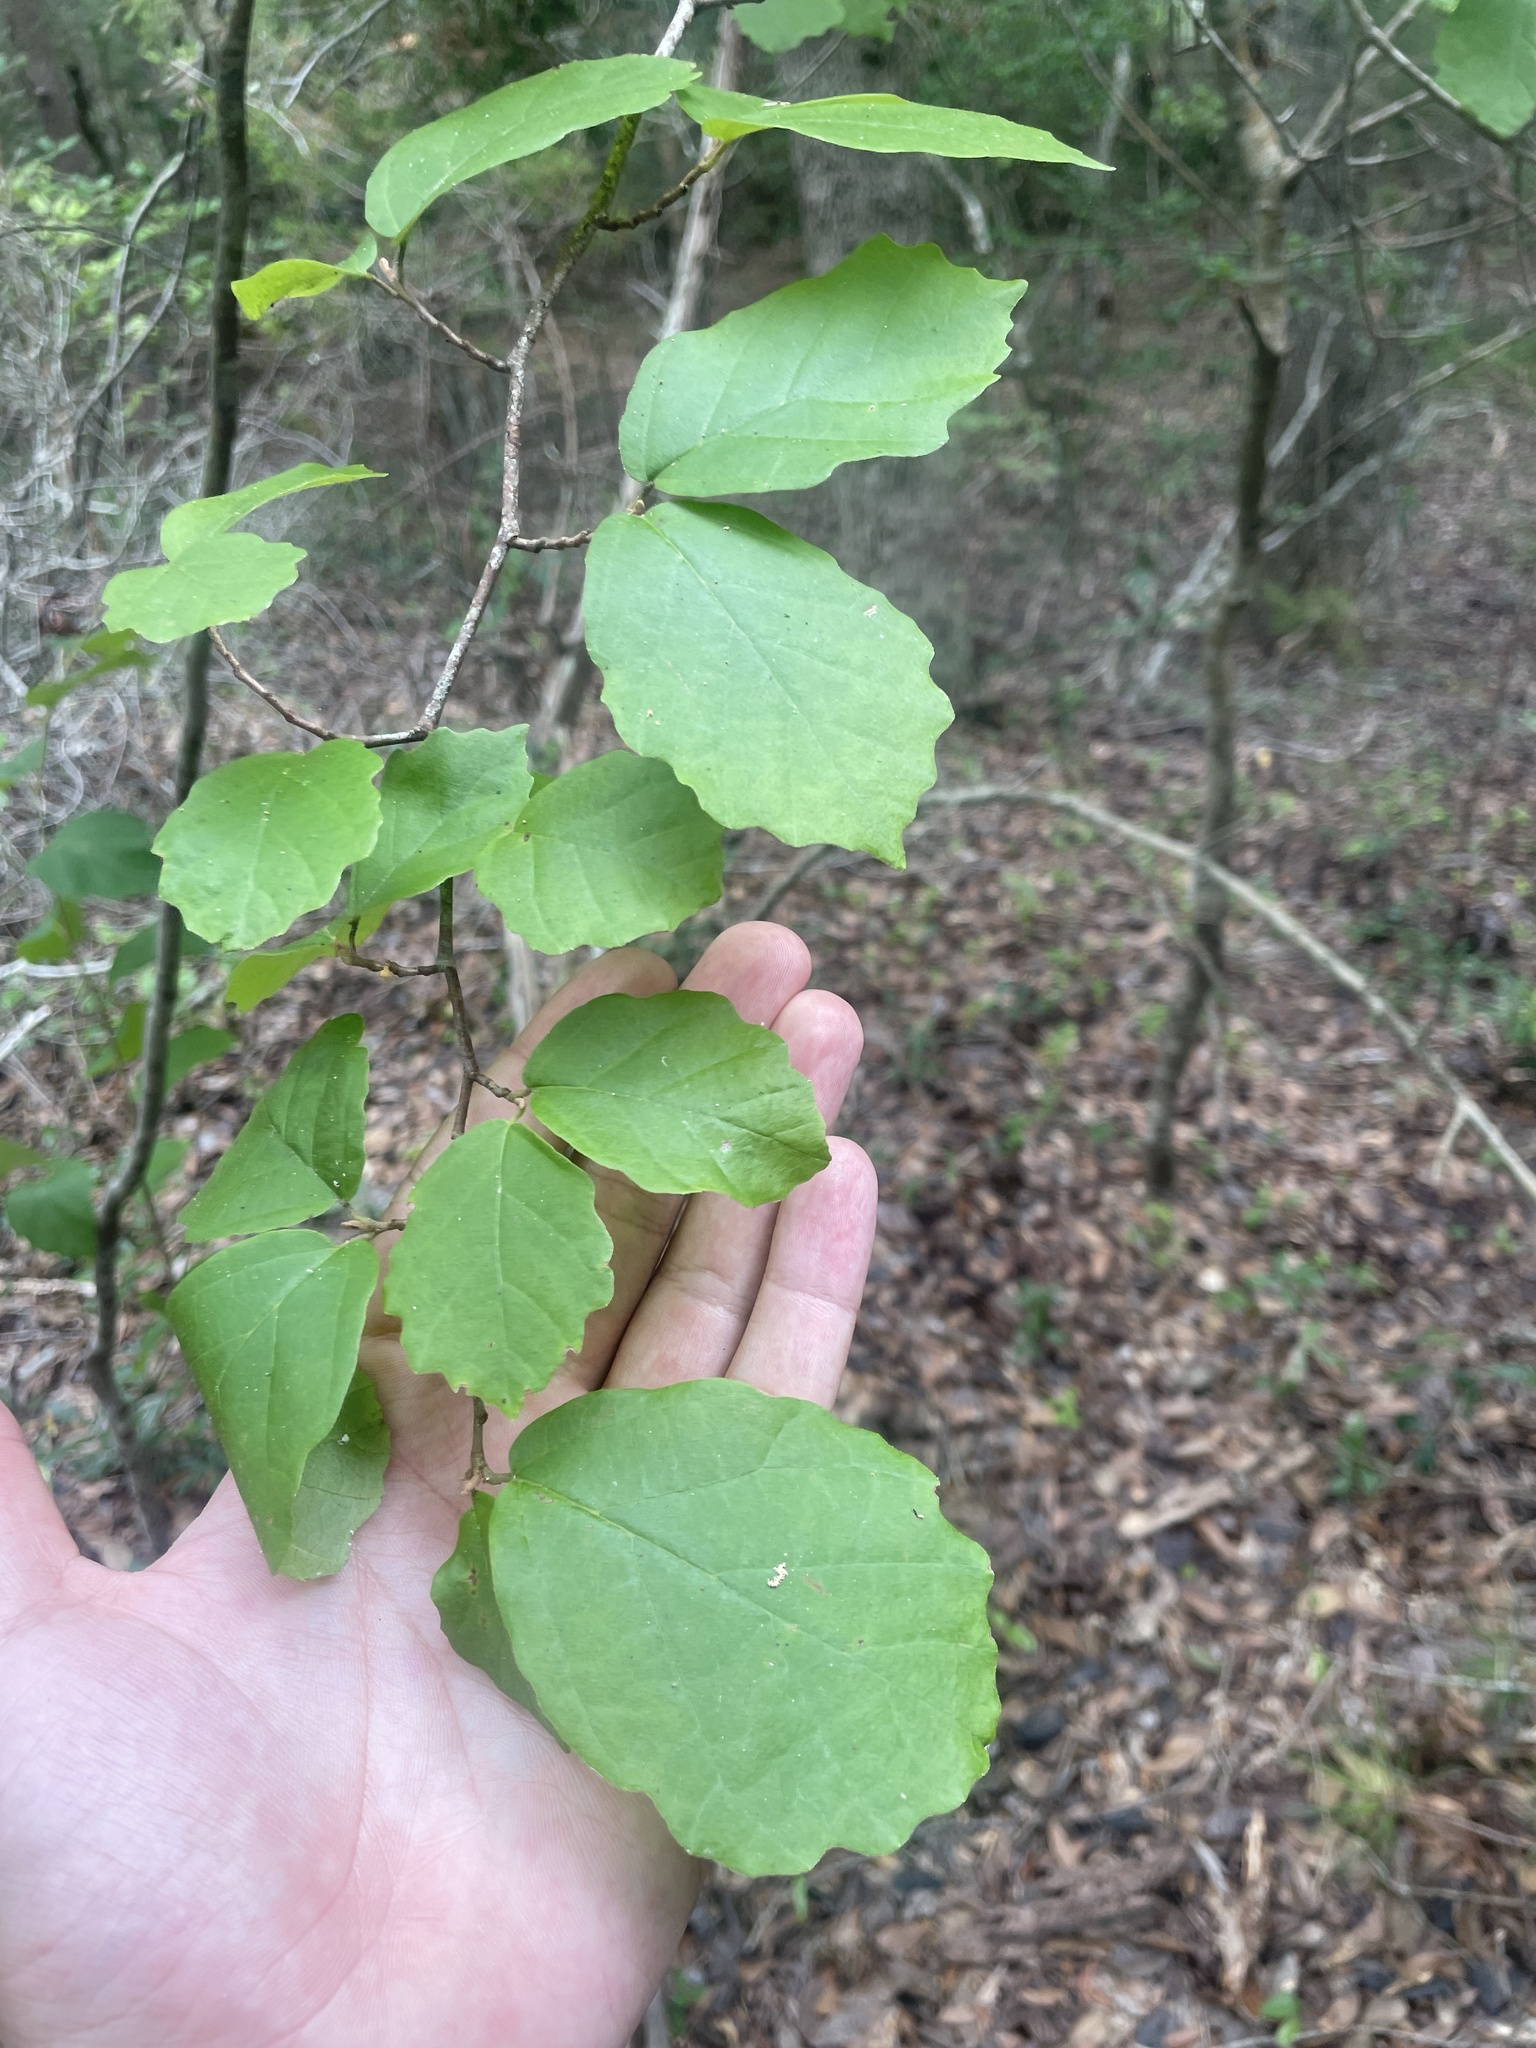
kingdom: Plantae
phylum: Tracheophyta
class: Magnoliopsida
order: Saxifragales
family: Hamamelidaceae
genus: Hamamelis
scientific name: Hamamelis virginiana
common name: Witch-hazel
